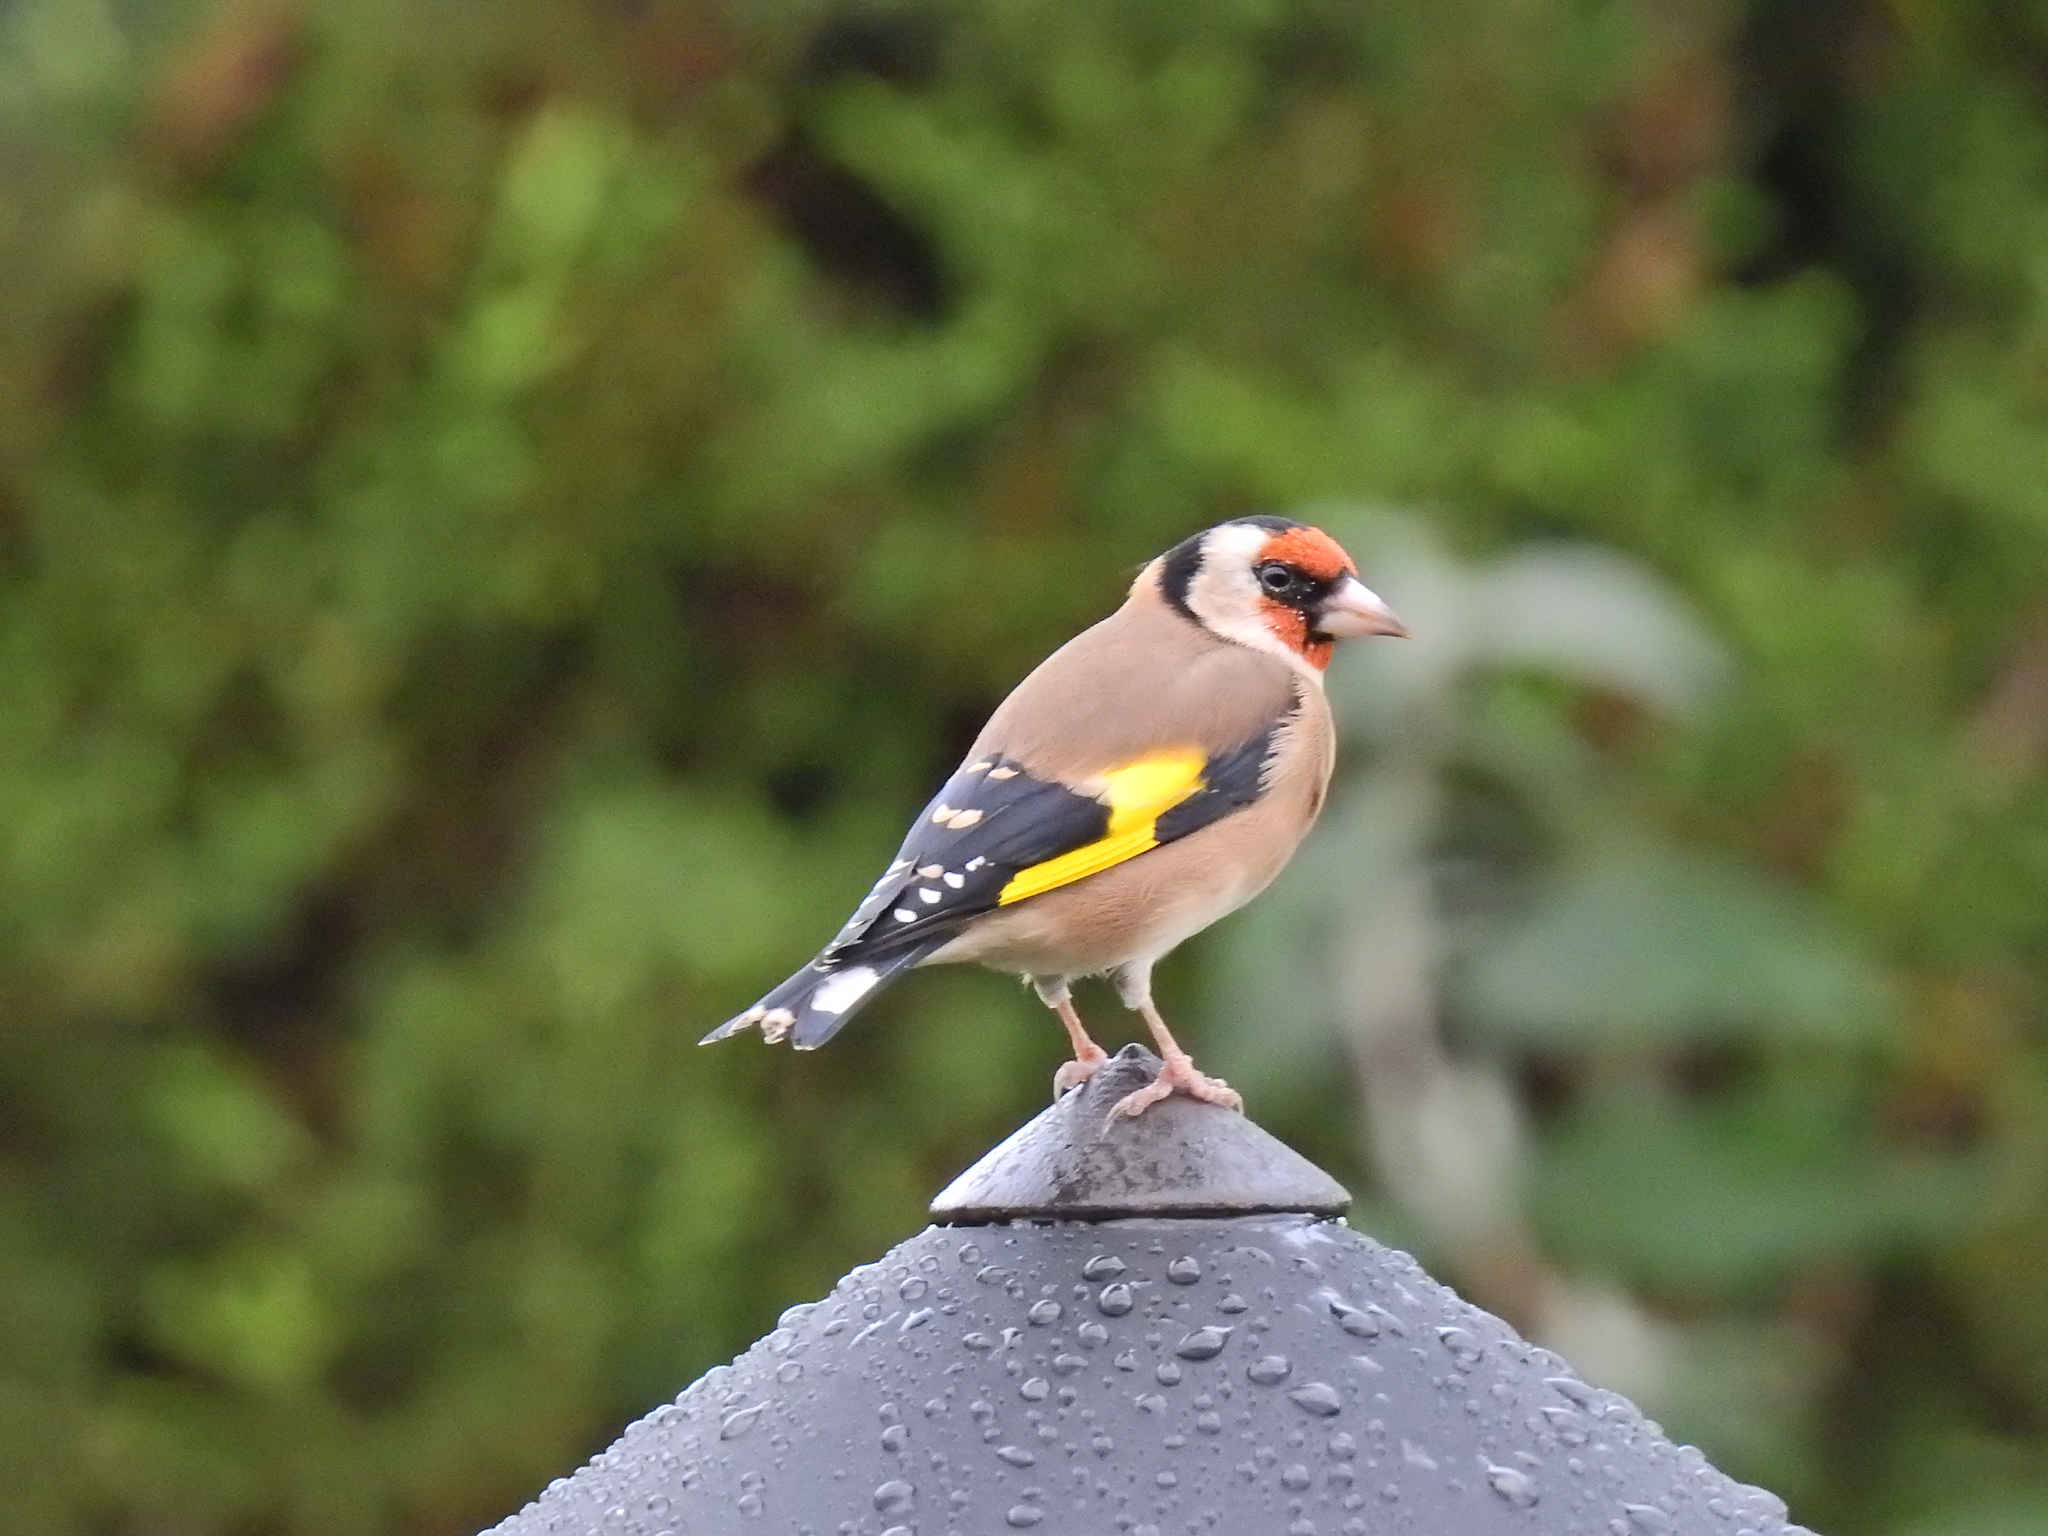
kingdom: Animalia
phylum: Chordata
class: Aves
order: Passeriformes
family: Fringillidae
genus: Carduelis
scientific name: Carduelis carduelis
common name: European goldfinch
